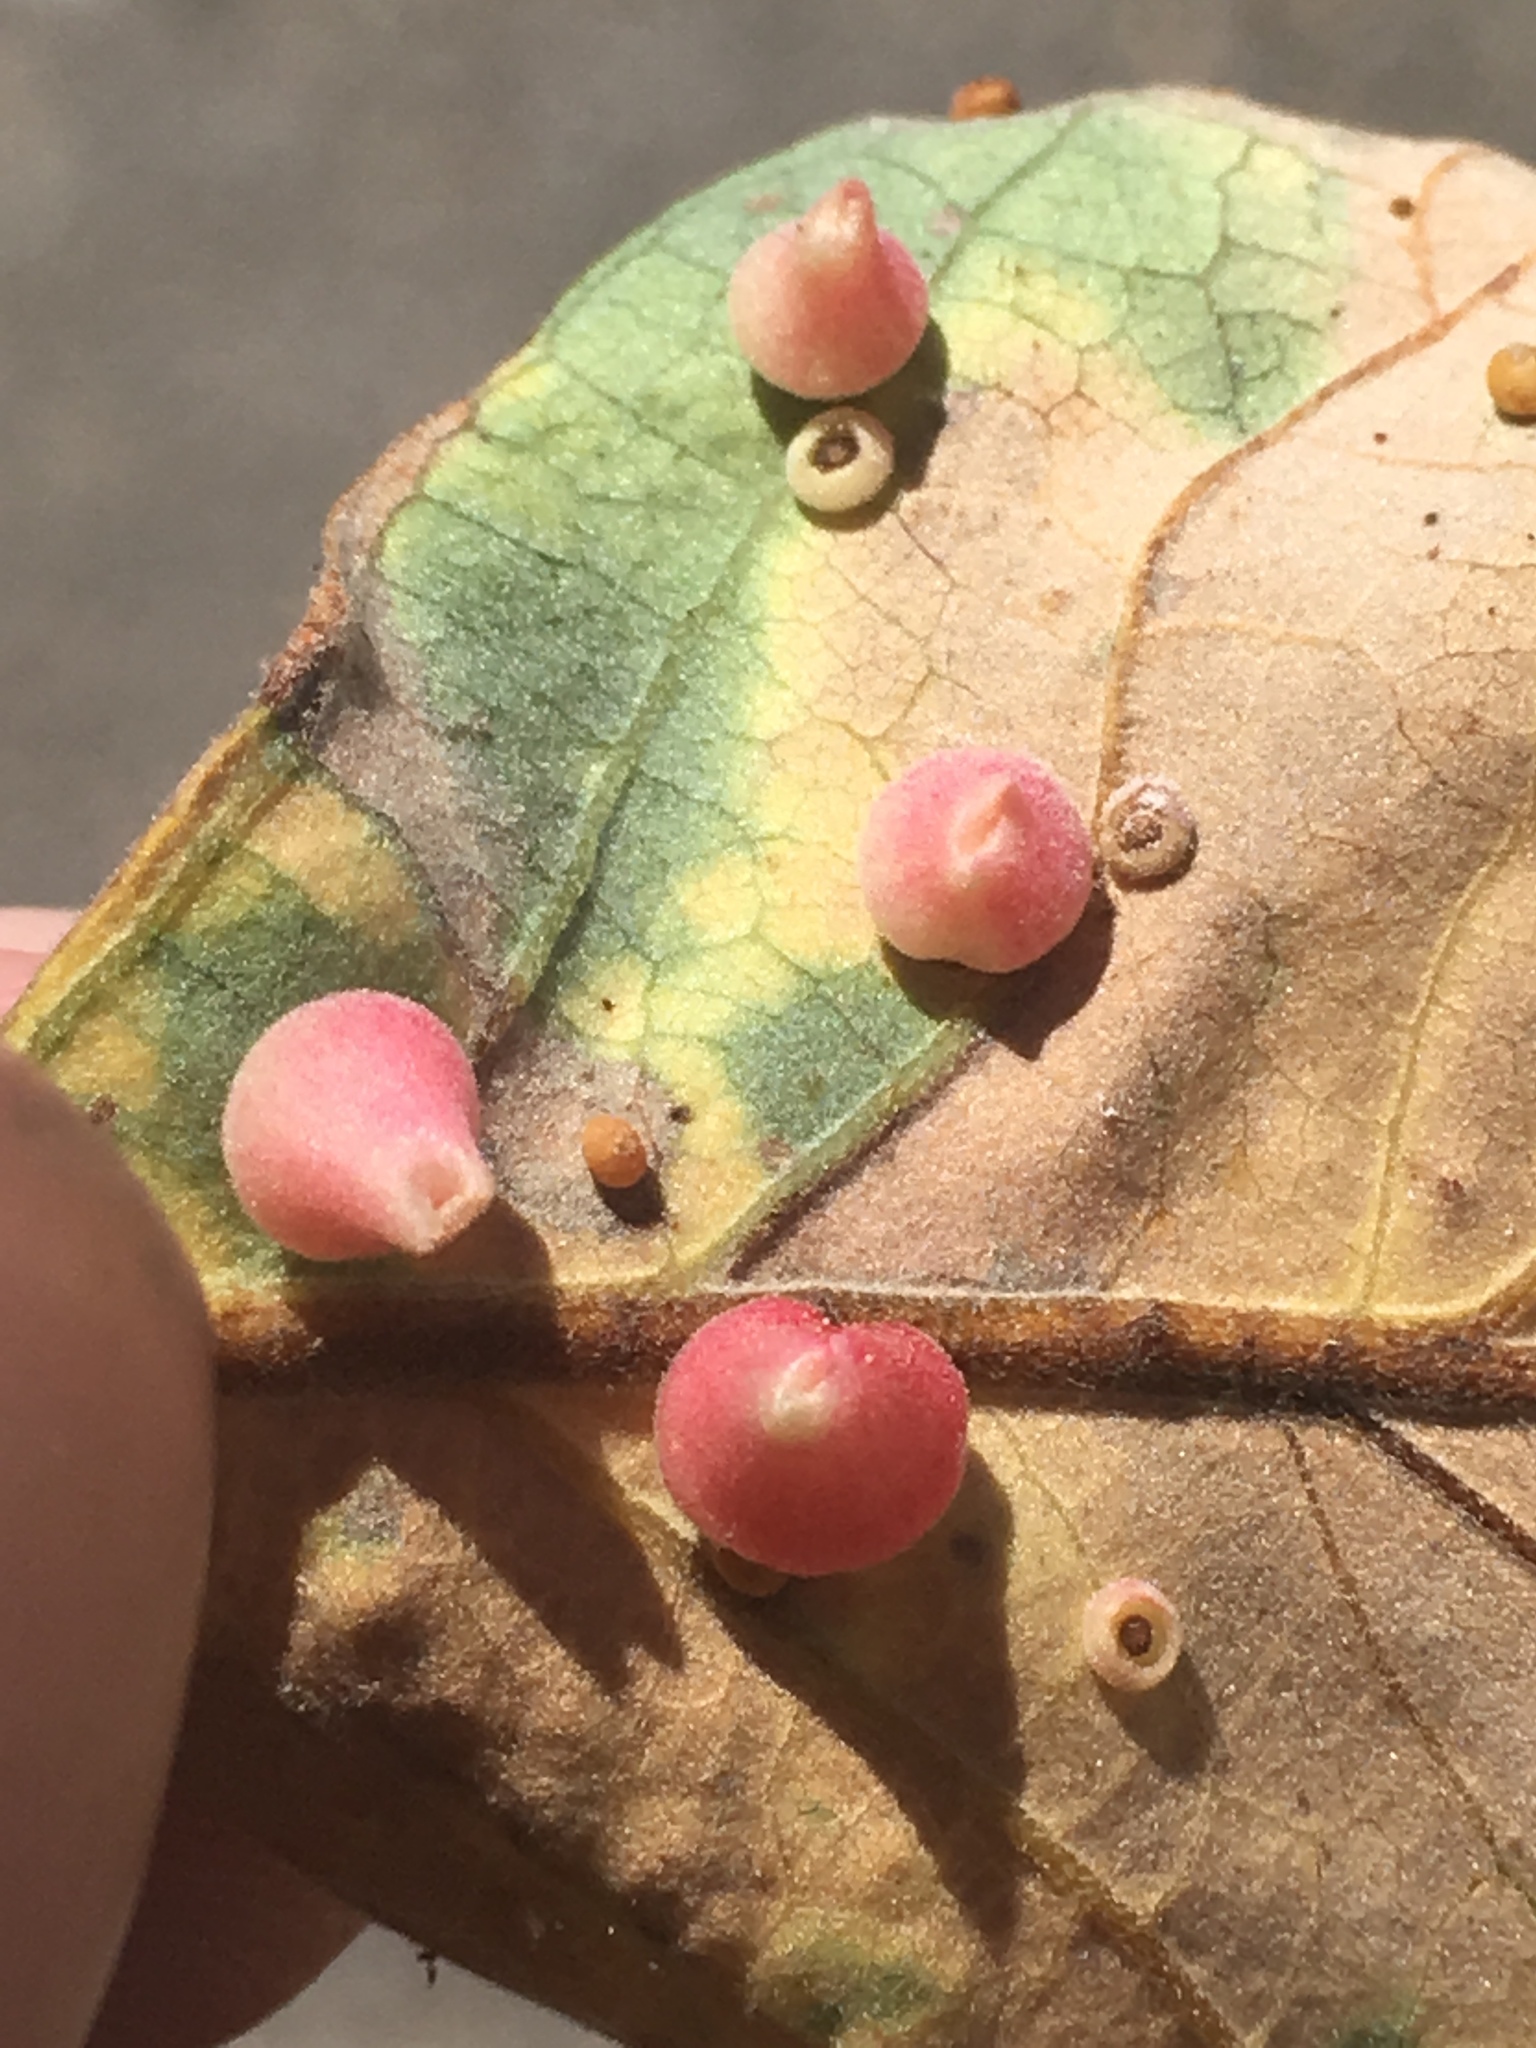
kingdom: Animalia
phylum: Arthropoda
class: Insecta
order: Hymenoptera
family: Cynipidae
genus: Andricus
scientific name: Andricus
